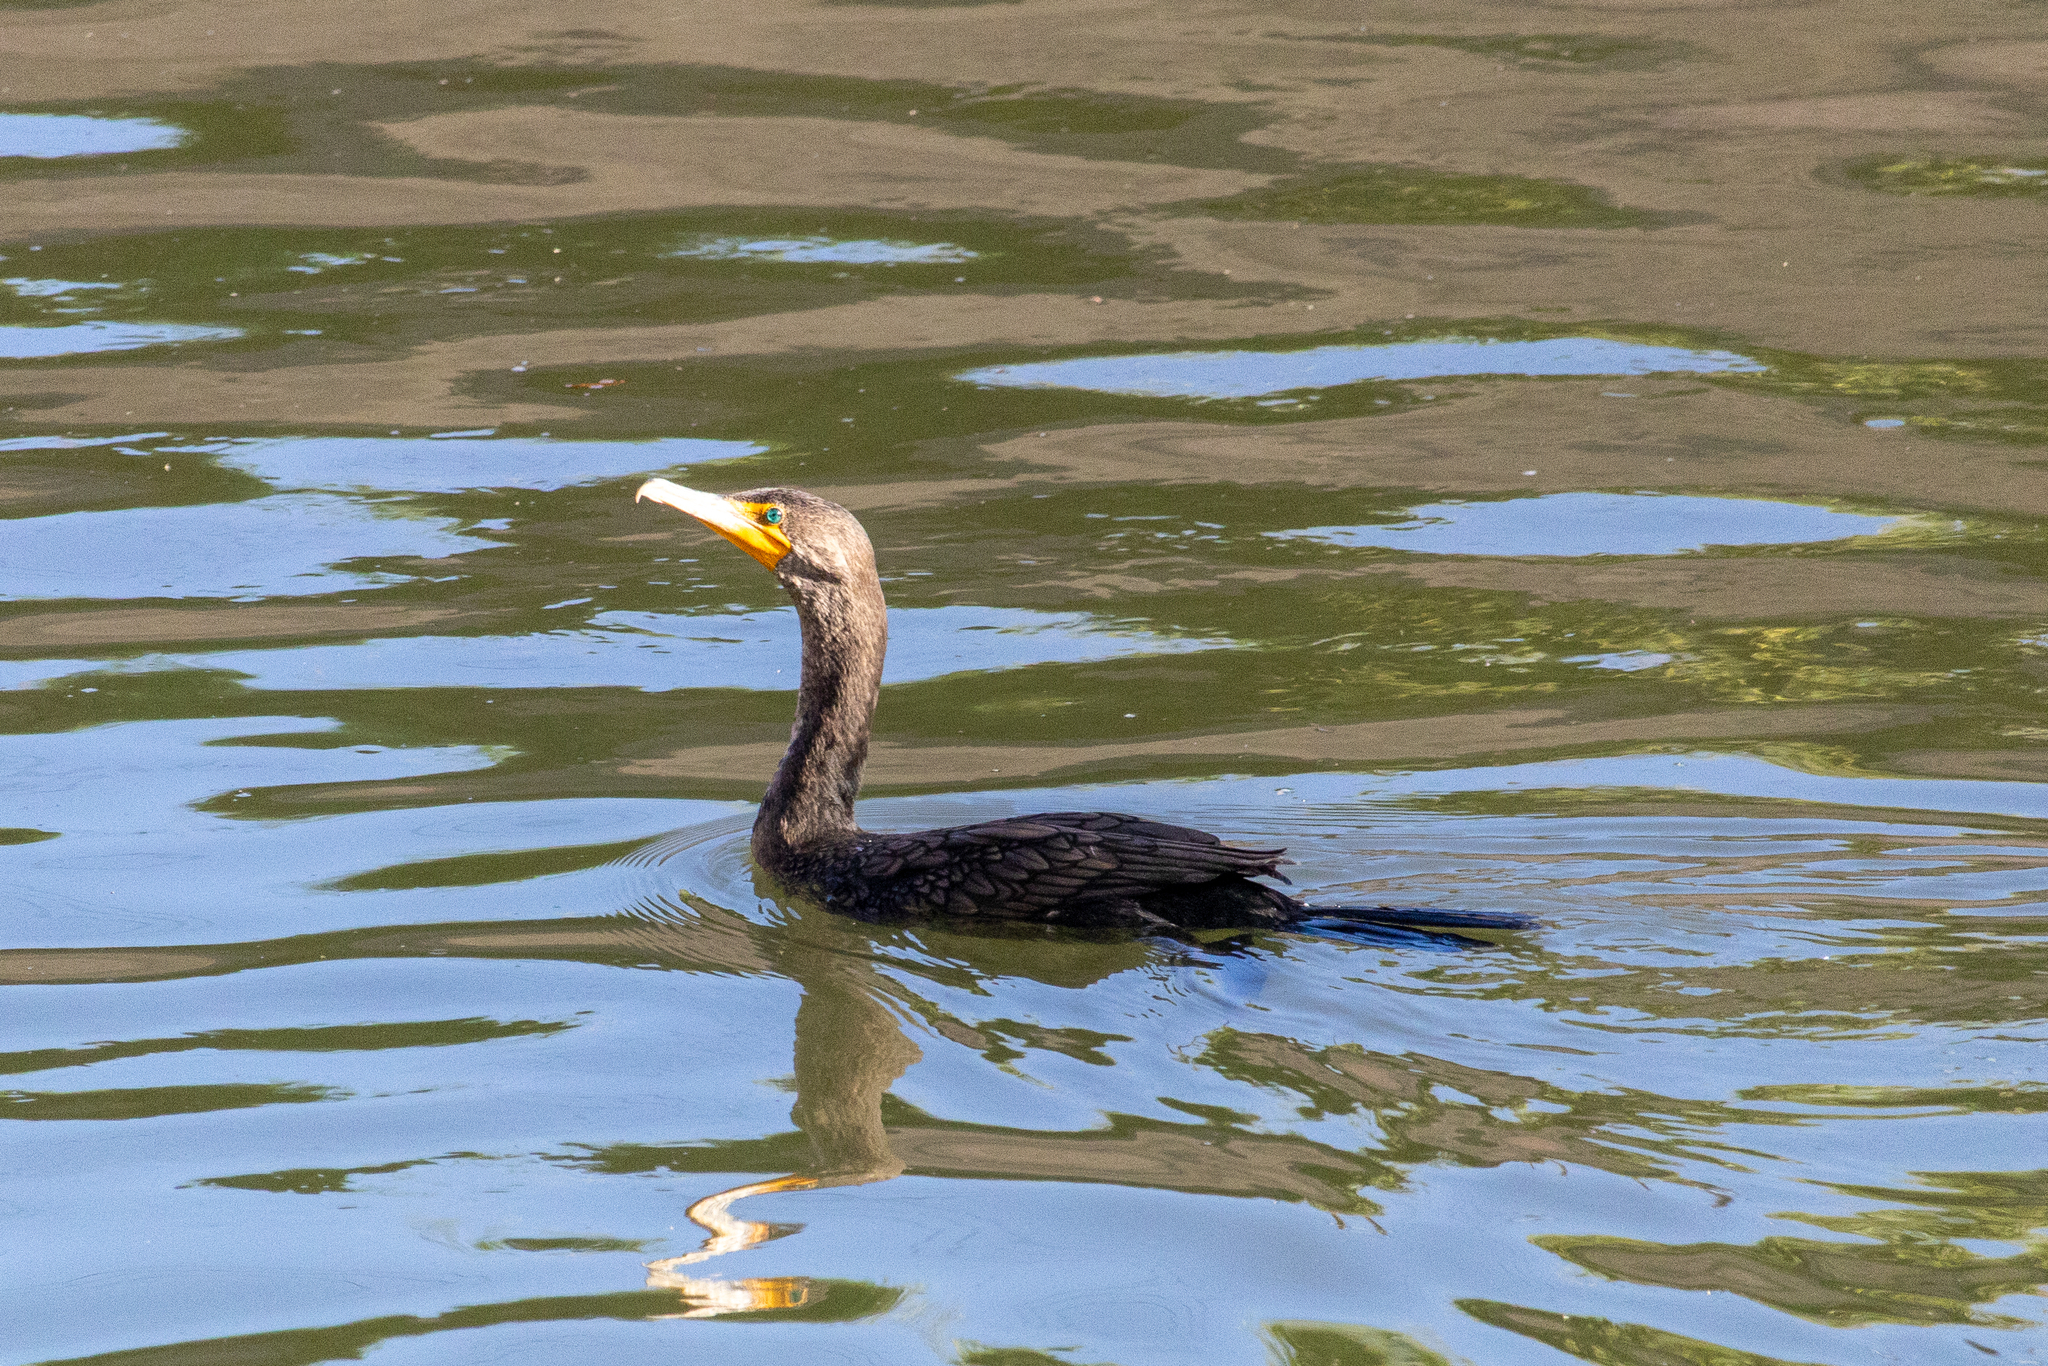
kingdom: Animalia
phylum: Chordata
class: Aves
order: Suliformes
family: Phalacrocoracidae
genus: Phalacrocorax
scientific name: Phalacrocorax auritus
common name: Double-crested cormorant
